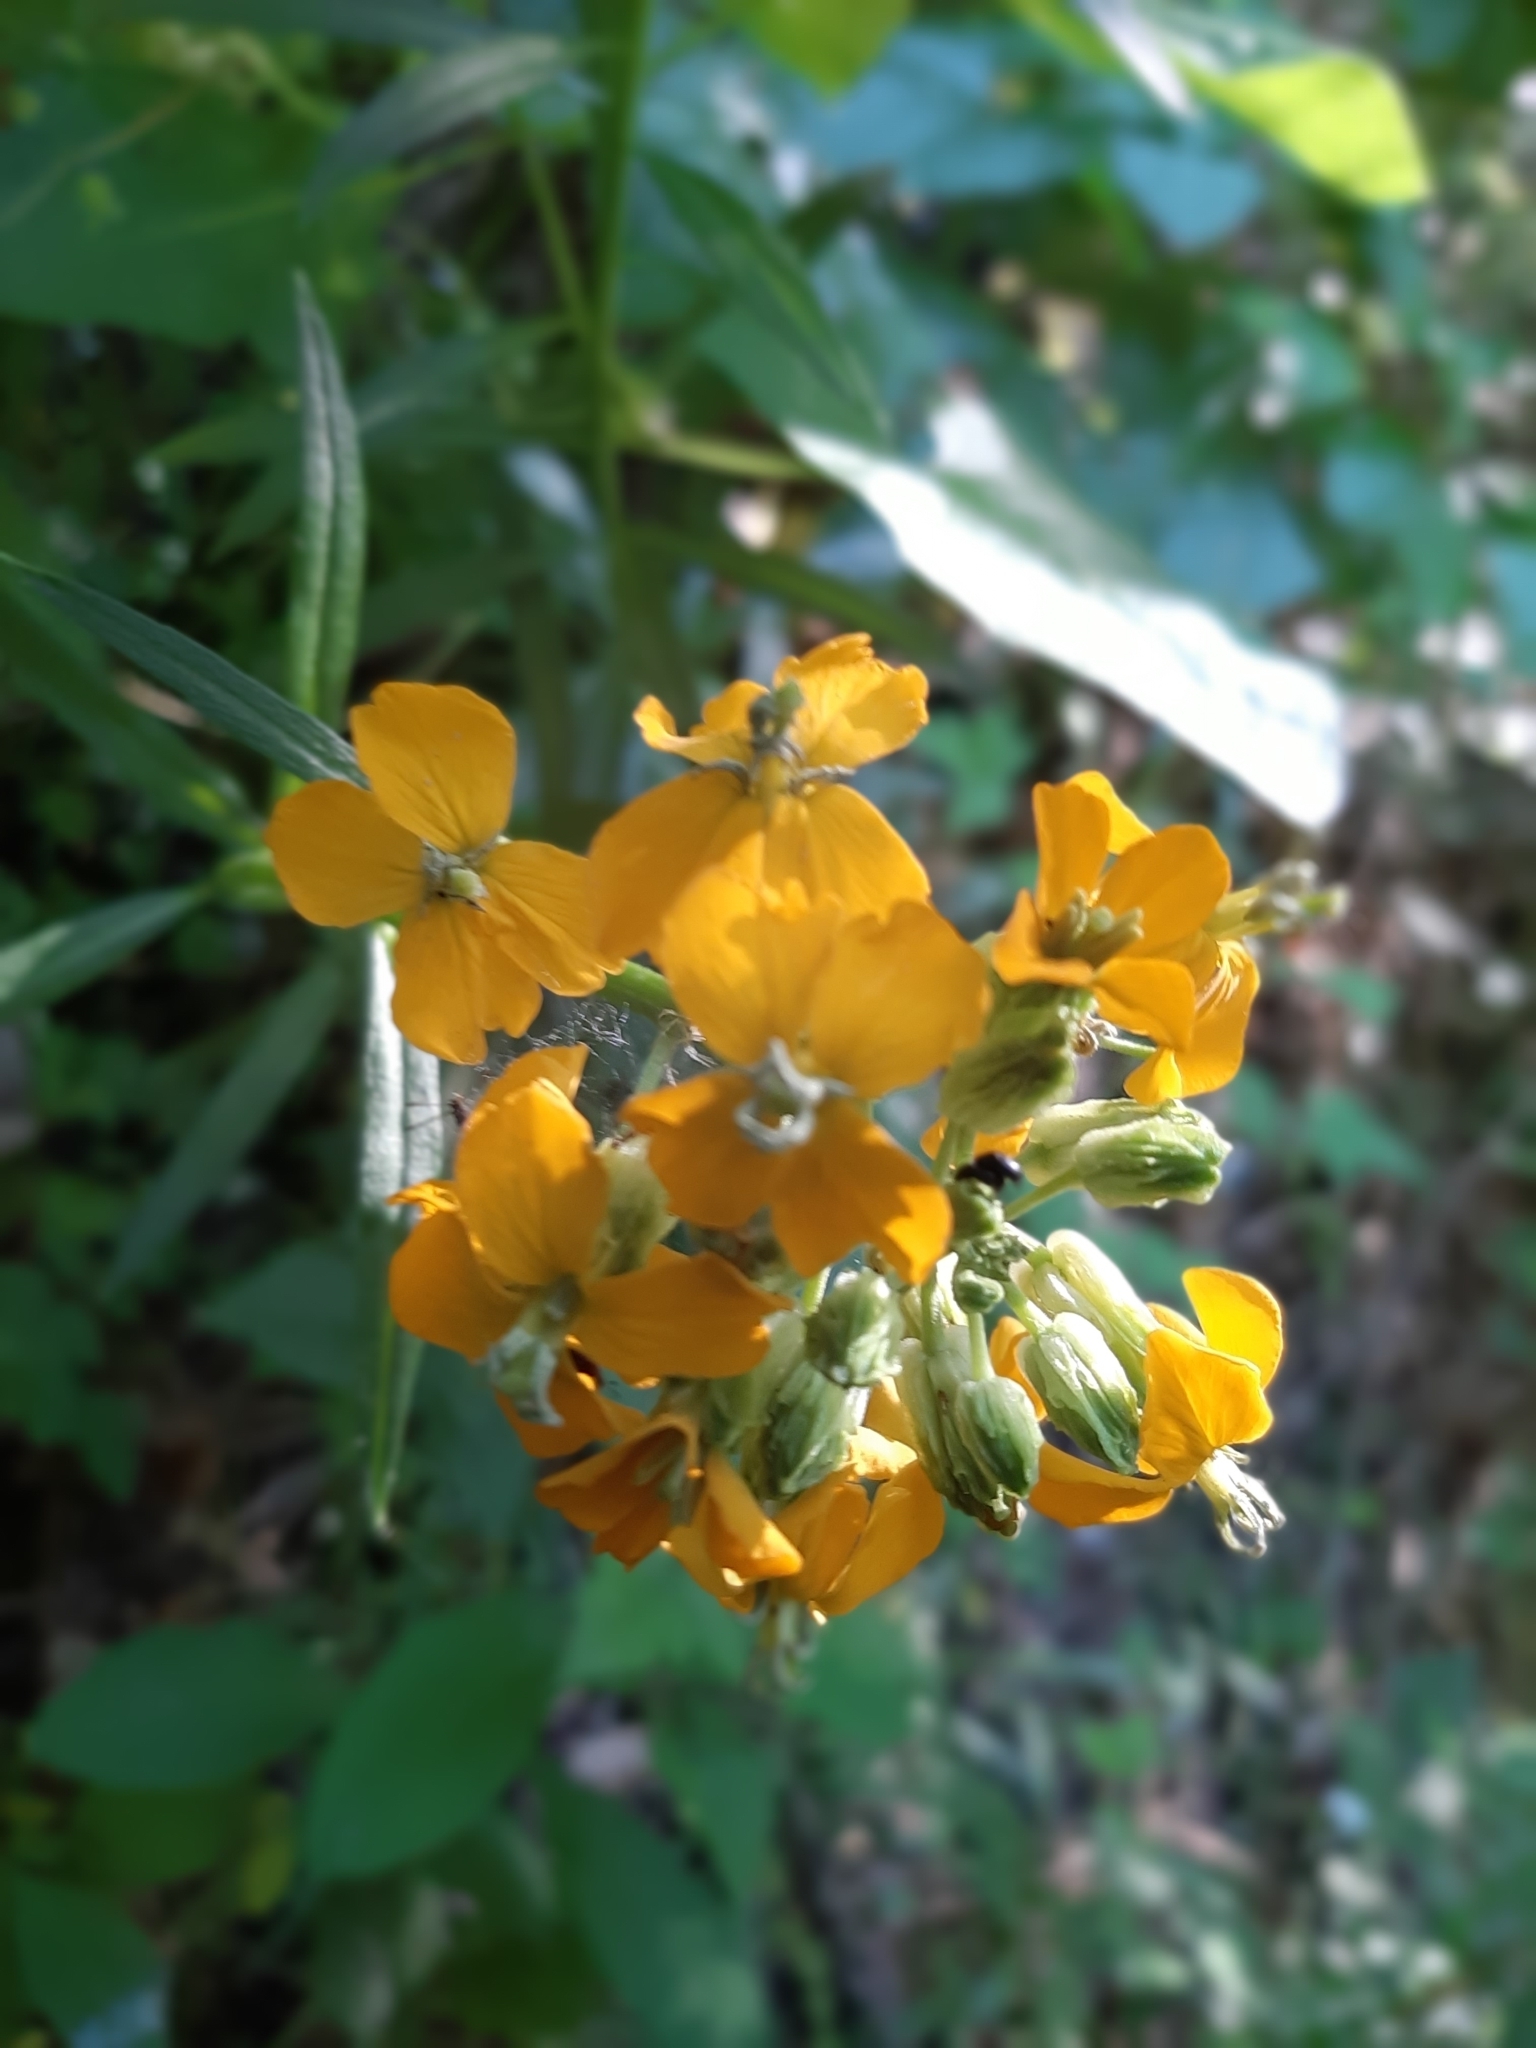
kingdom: Plantae
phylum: Tracheophyta
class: Magnoliopsida
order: Brassicales
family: Brassicaceae
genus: Erysimum
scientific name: Erysimum capitatum
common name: Western wallflower
